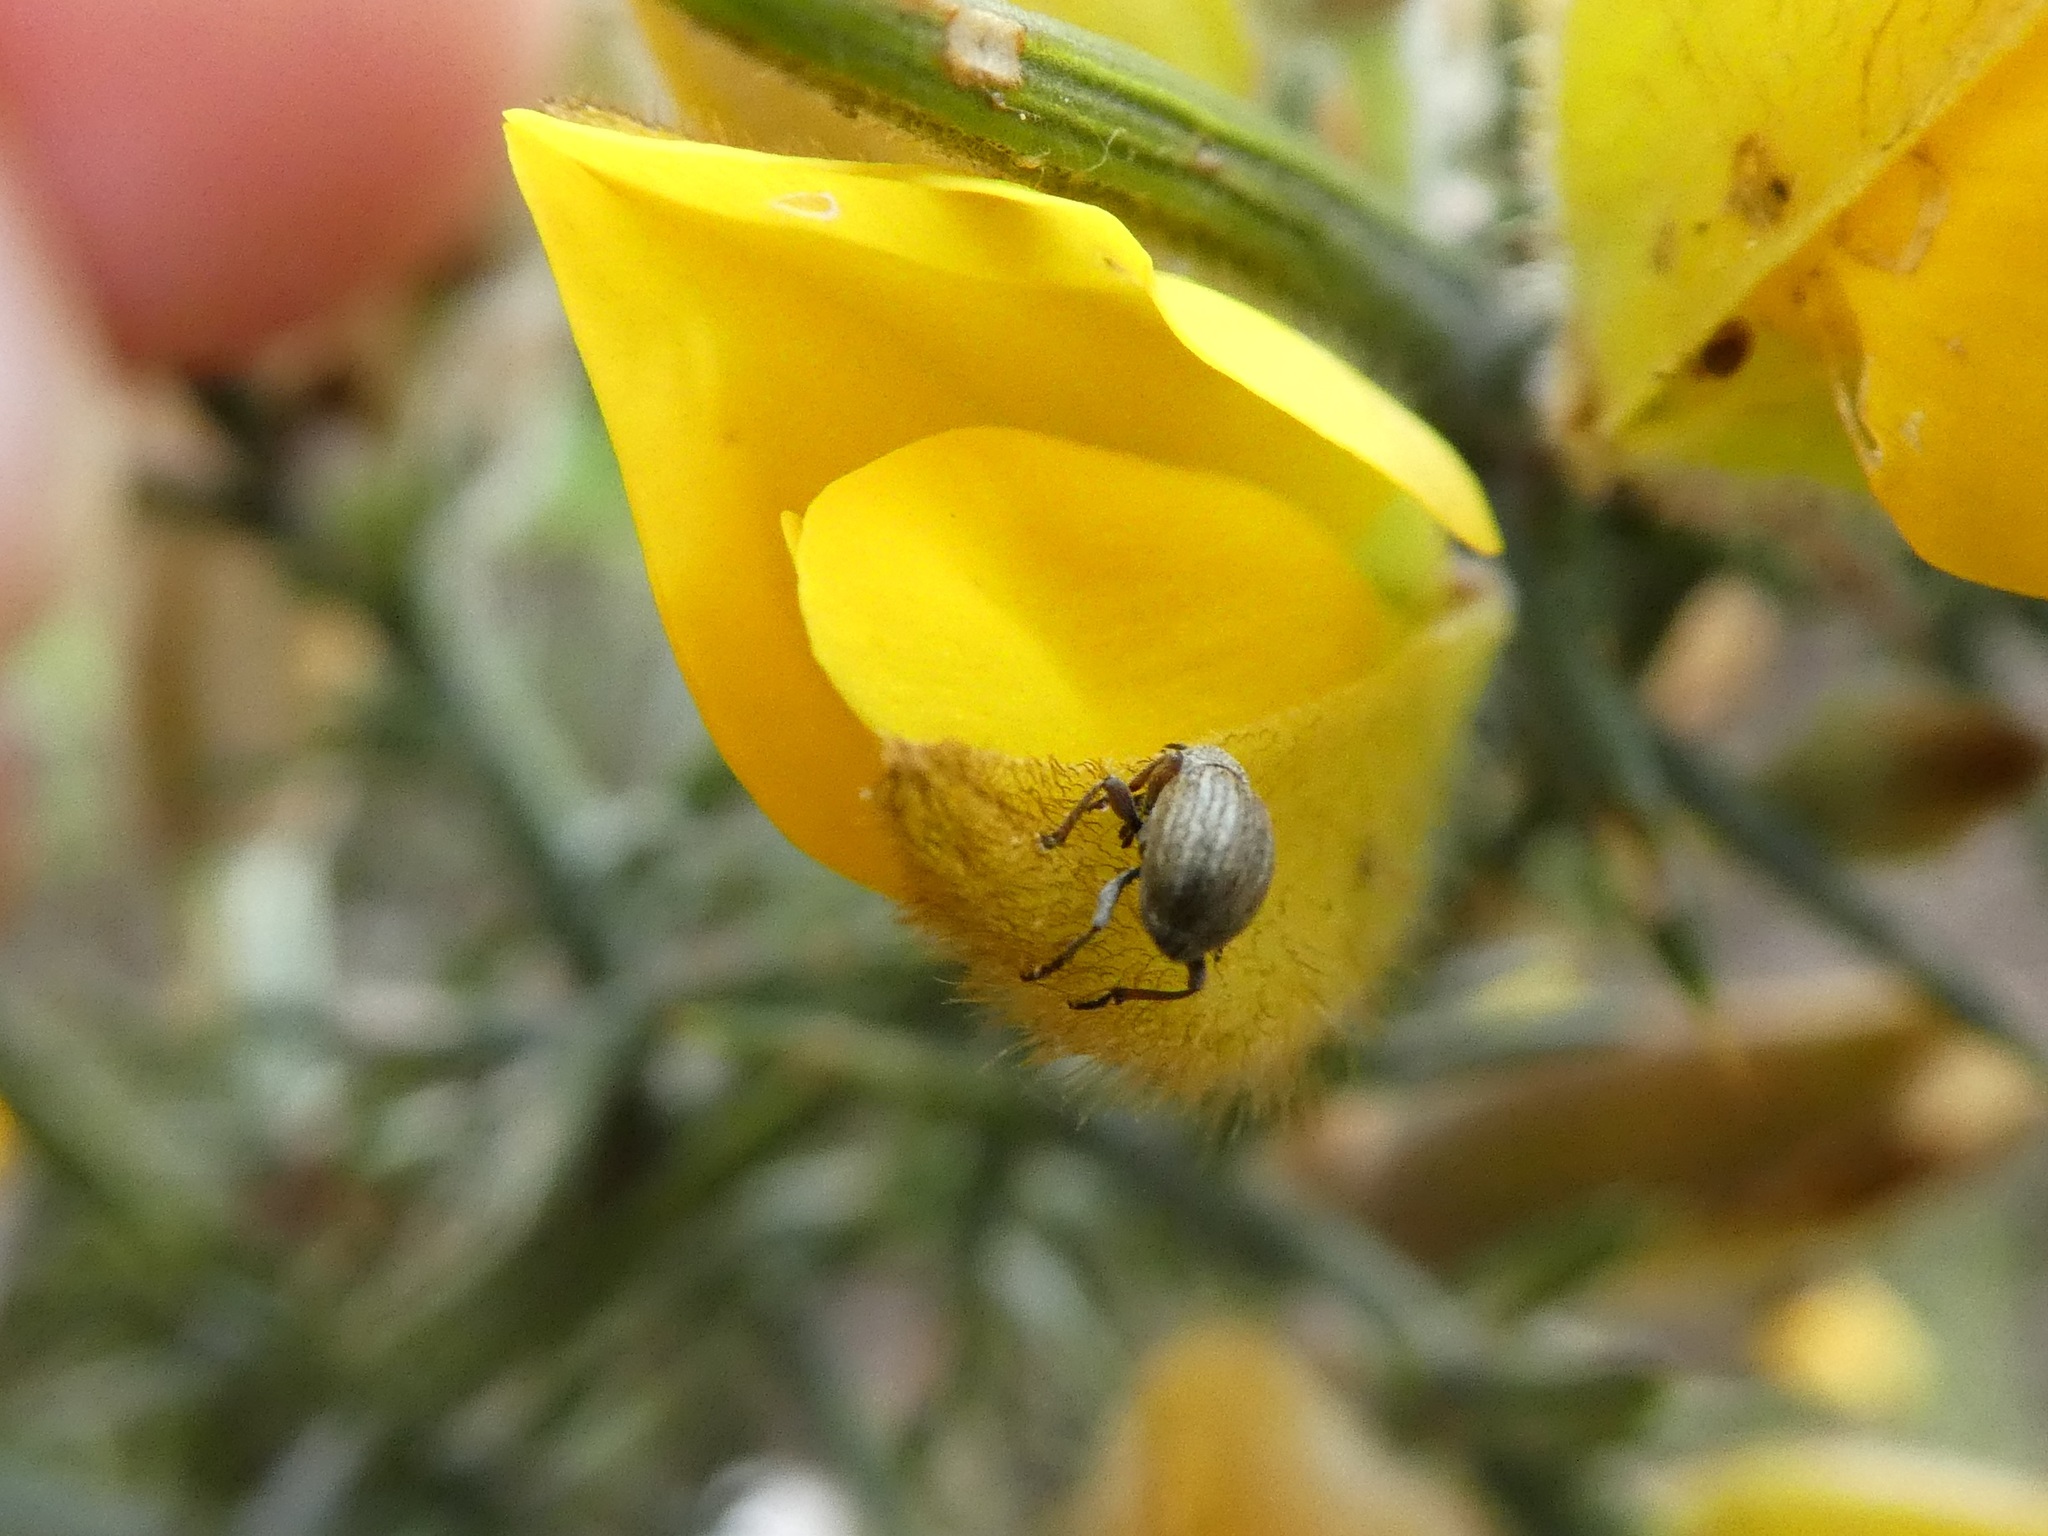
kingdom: Animalia
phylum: Arthropoda
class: Insecta
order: Coleoptera
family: Brentidae
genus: Exapion
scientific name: Exapion ulicis
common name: Gorse seed weevil
